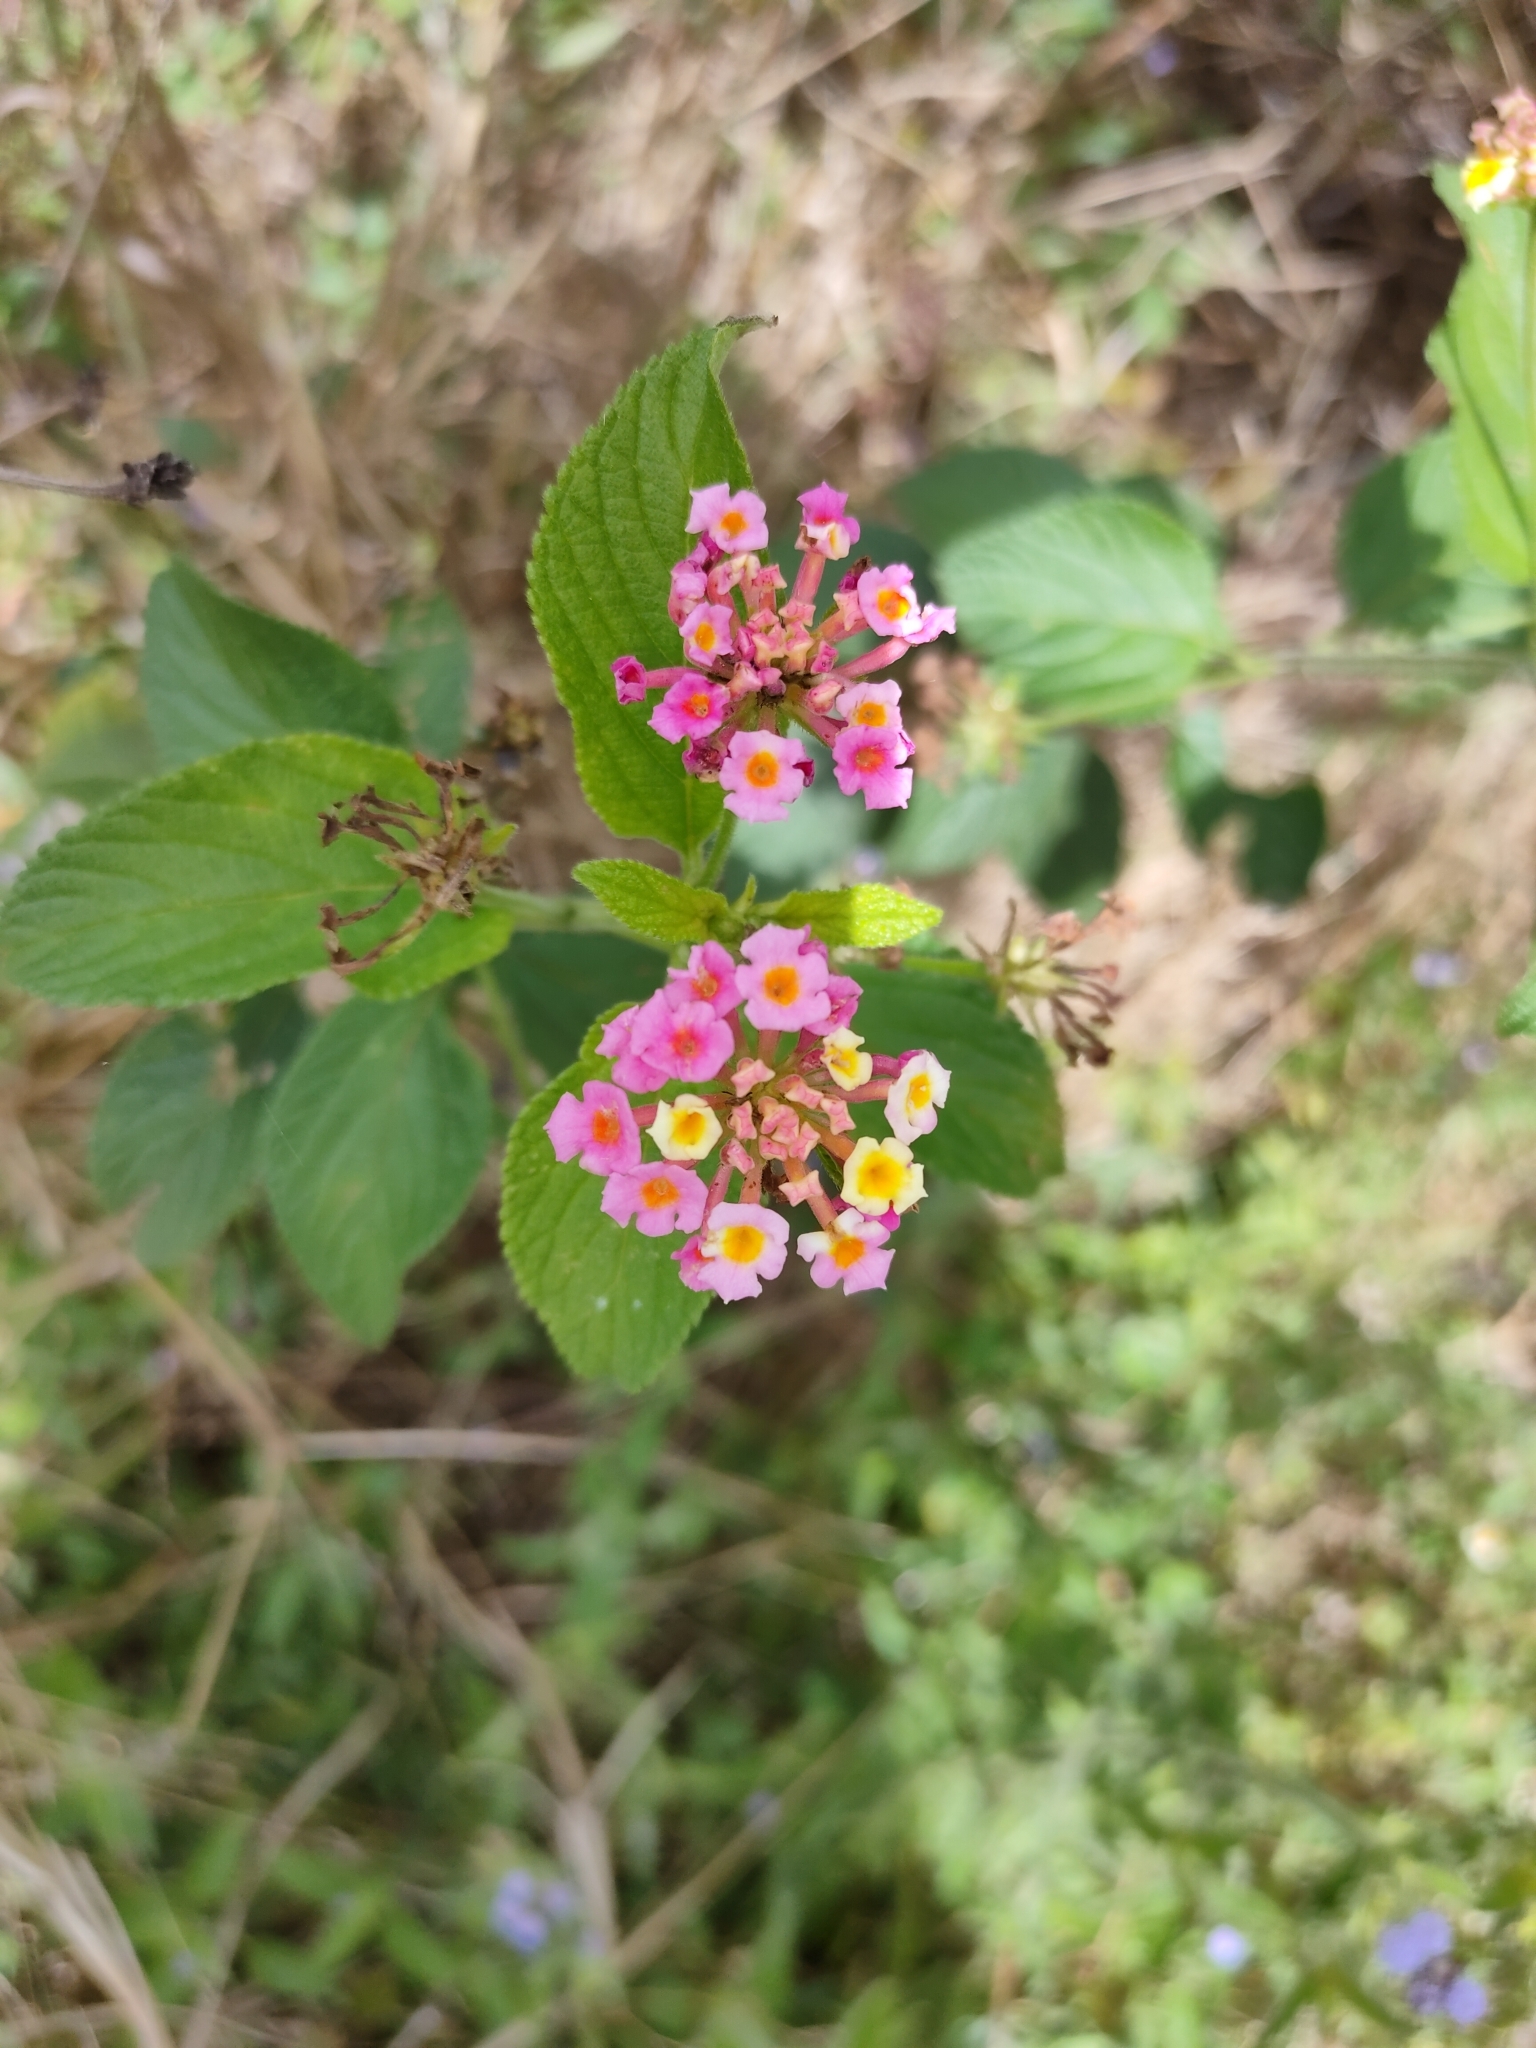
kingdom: Plantae
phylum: Tracheophyta
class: Magnoliopsida
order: Lamiales
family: Verbenaceae
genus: Lantana
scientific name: Lantana camara
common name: Lantana
